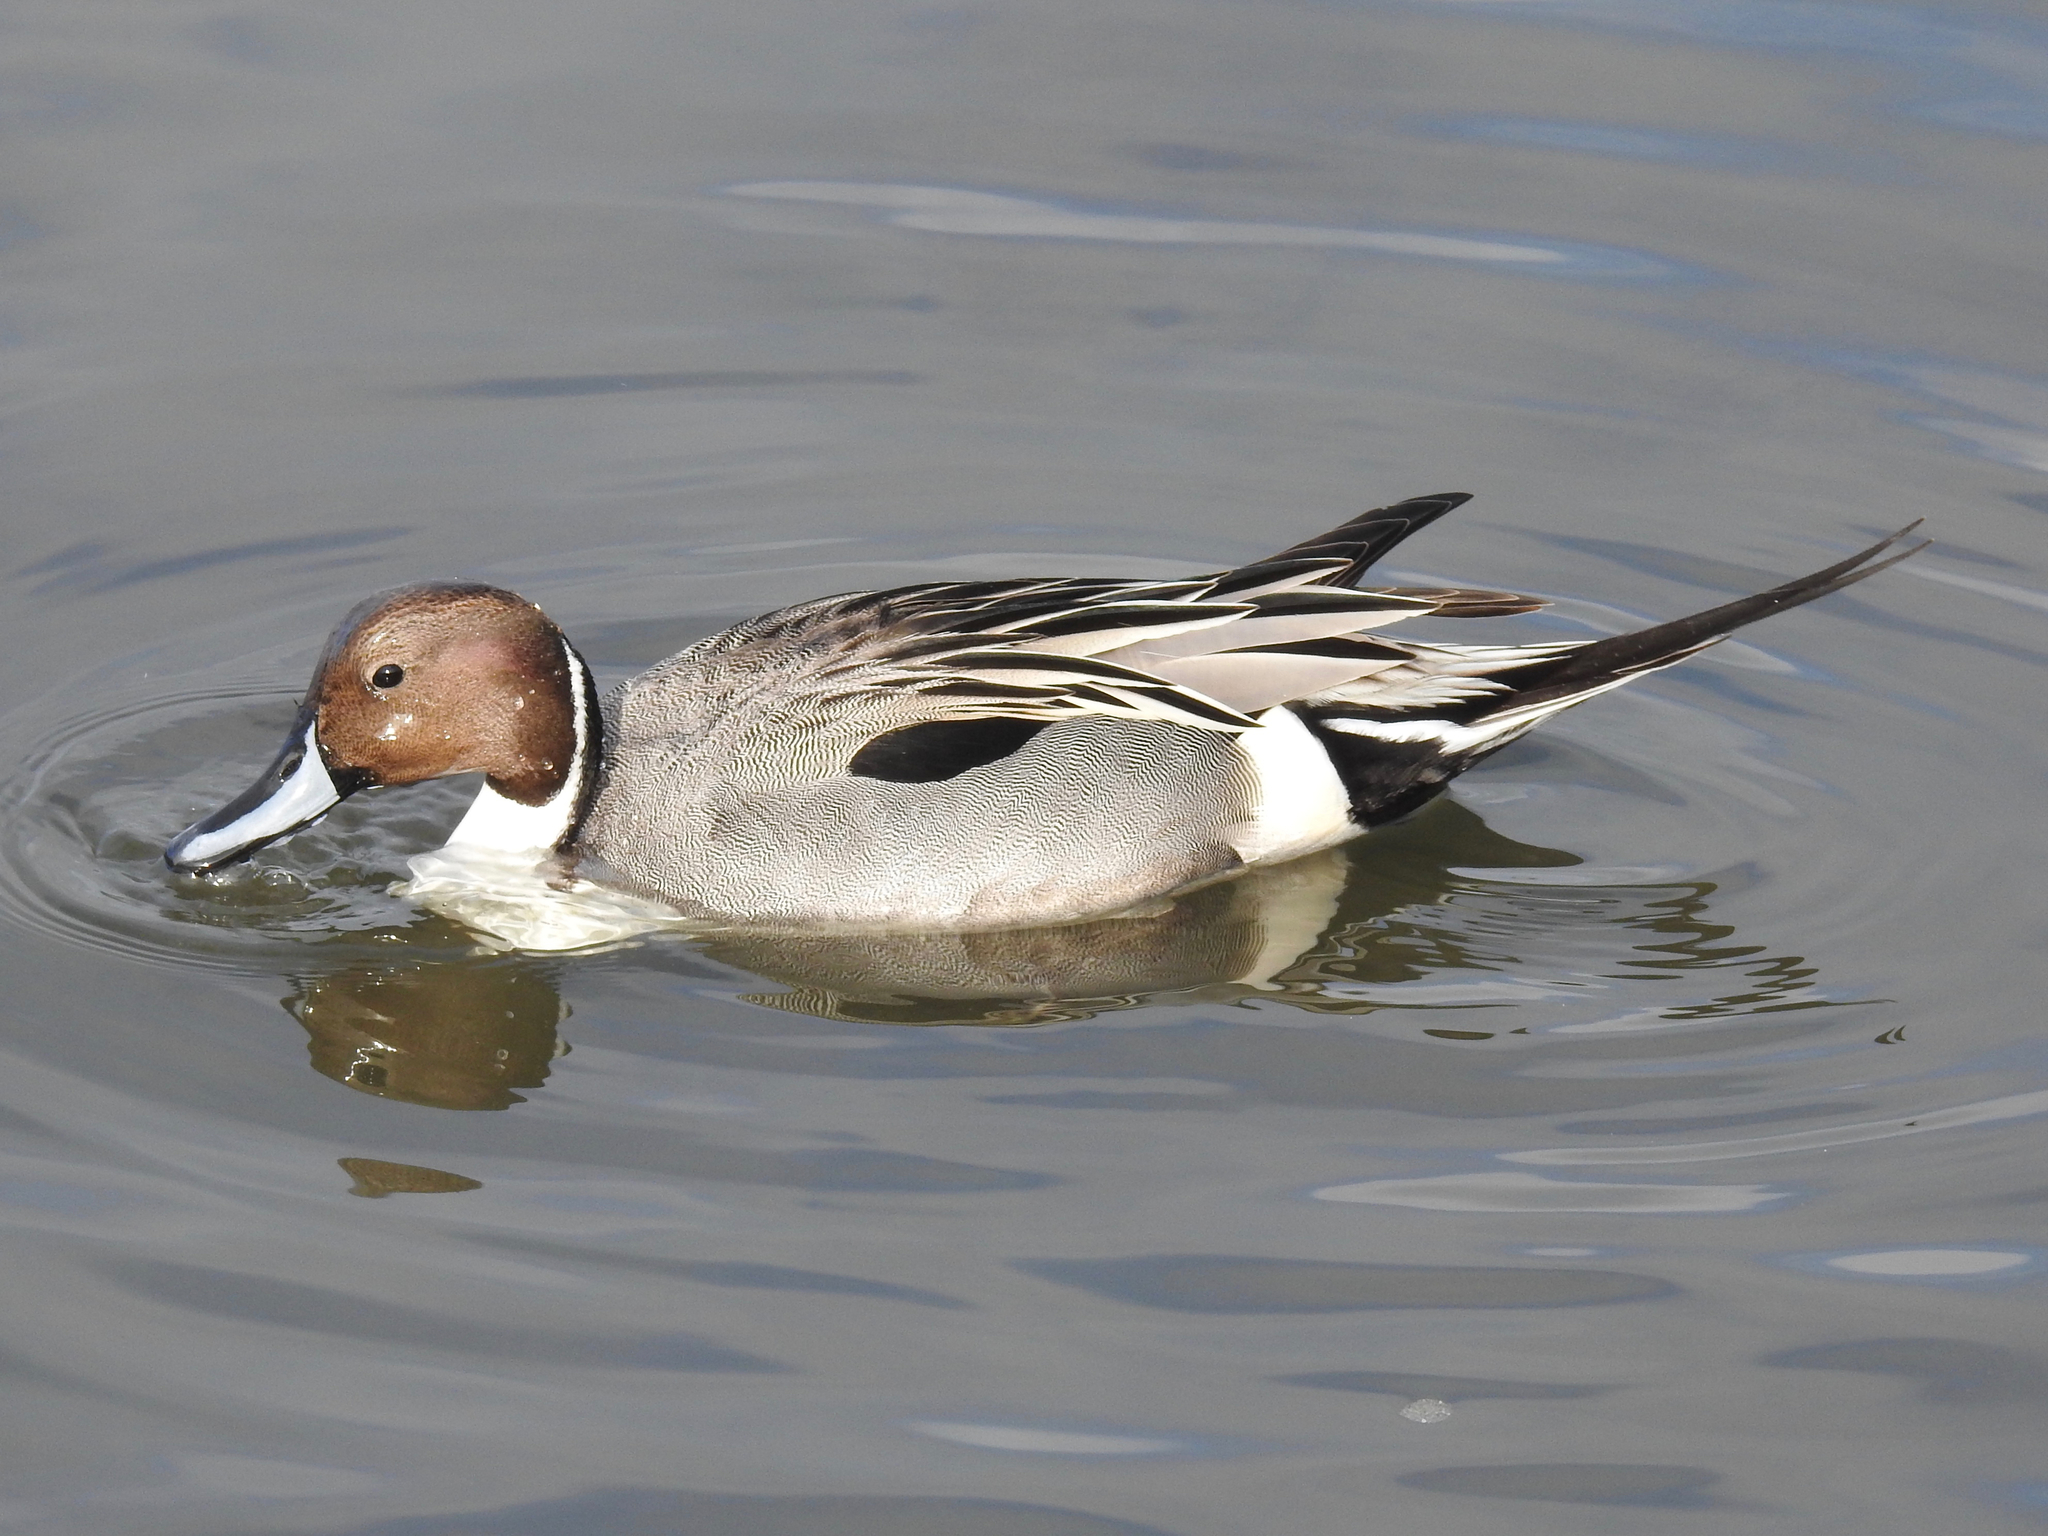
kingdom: Animalia
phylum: Chordata
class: Aves
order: Anseriformes
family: Anatidae
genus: Anas
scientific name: Anas acuta
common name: Northern pintail
